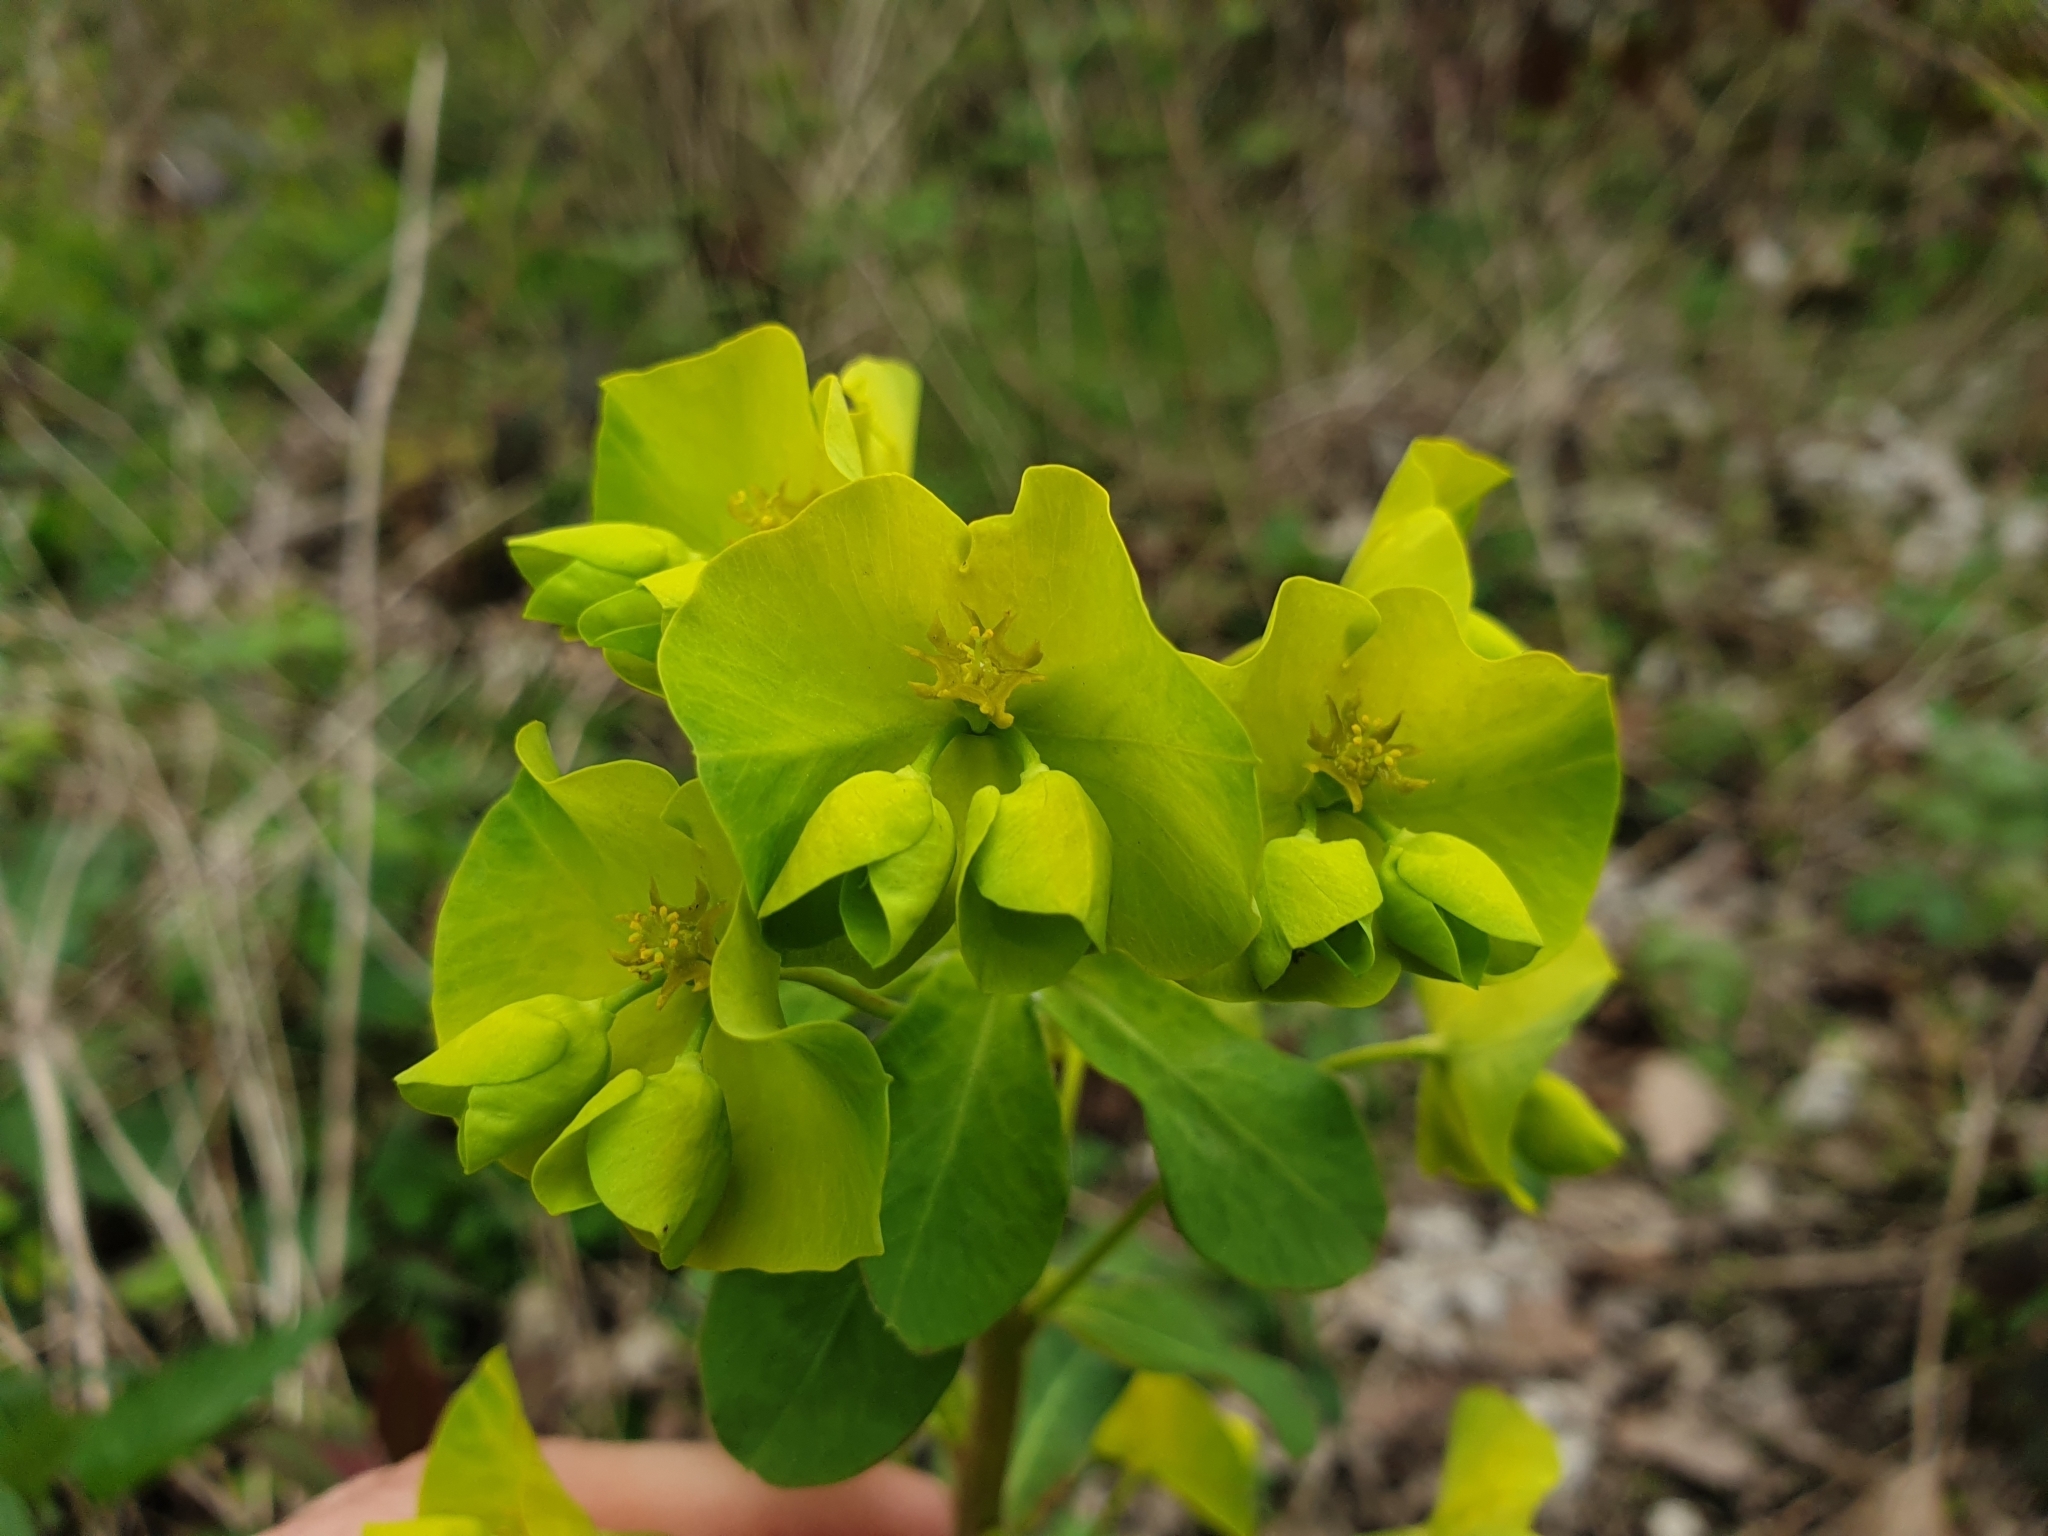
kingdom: Plantae
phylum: Tracheophyta
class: Magnoliopsida
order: Malpighiales
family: Euphorbiaceae
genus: Euphorbia
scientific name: Euphorbia amygdaloides
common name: Wood spurge
